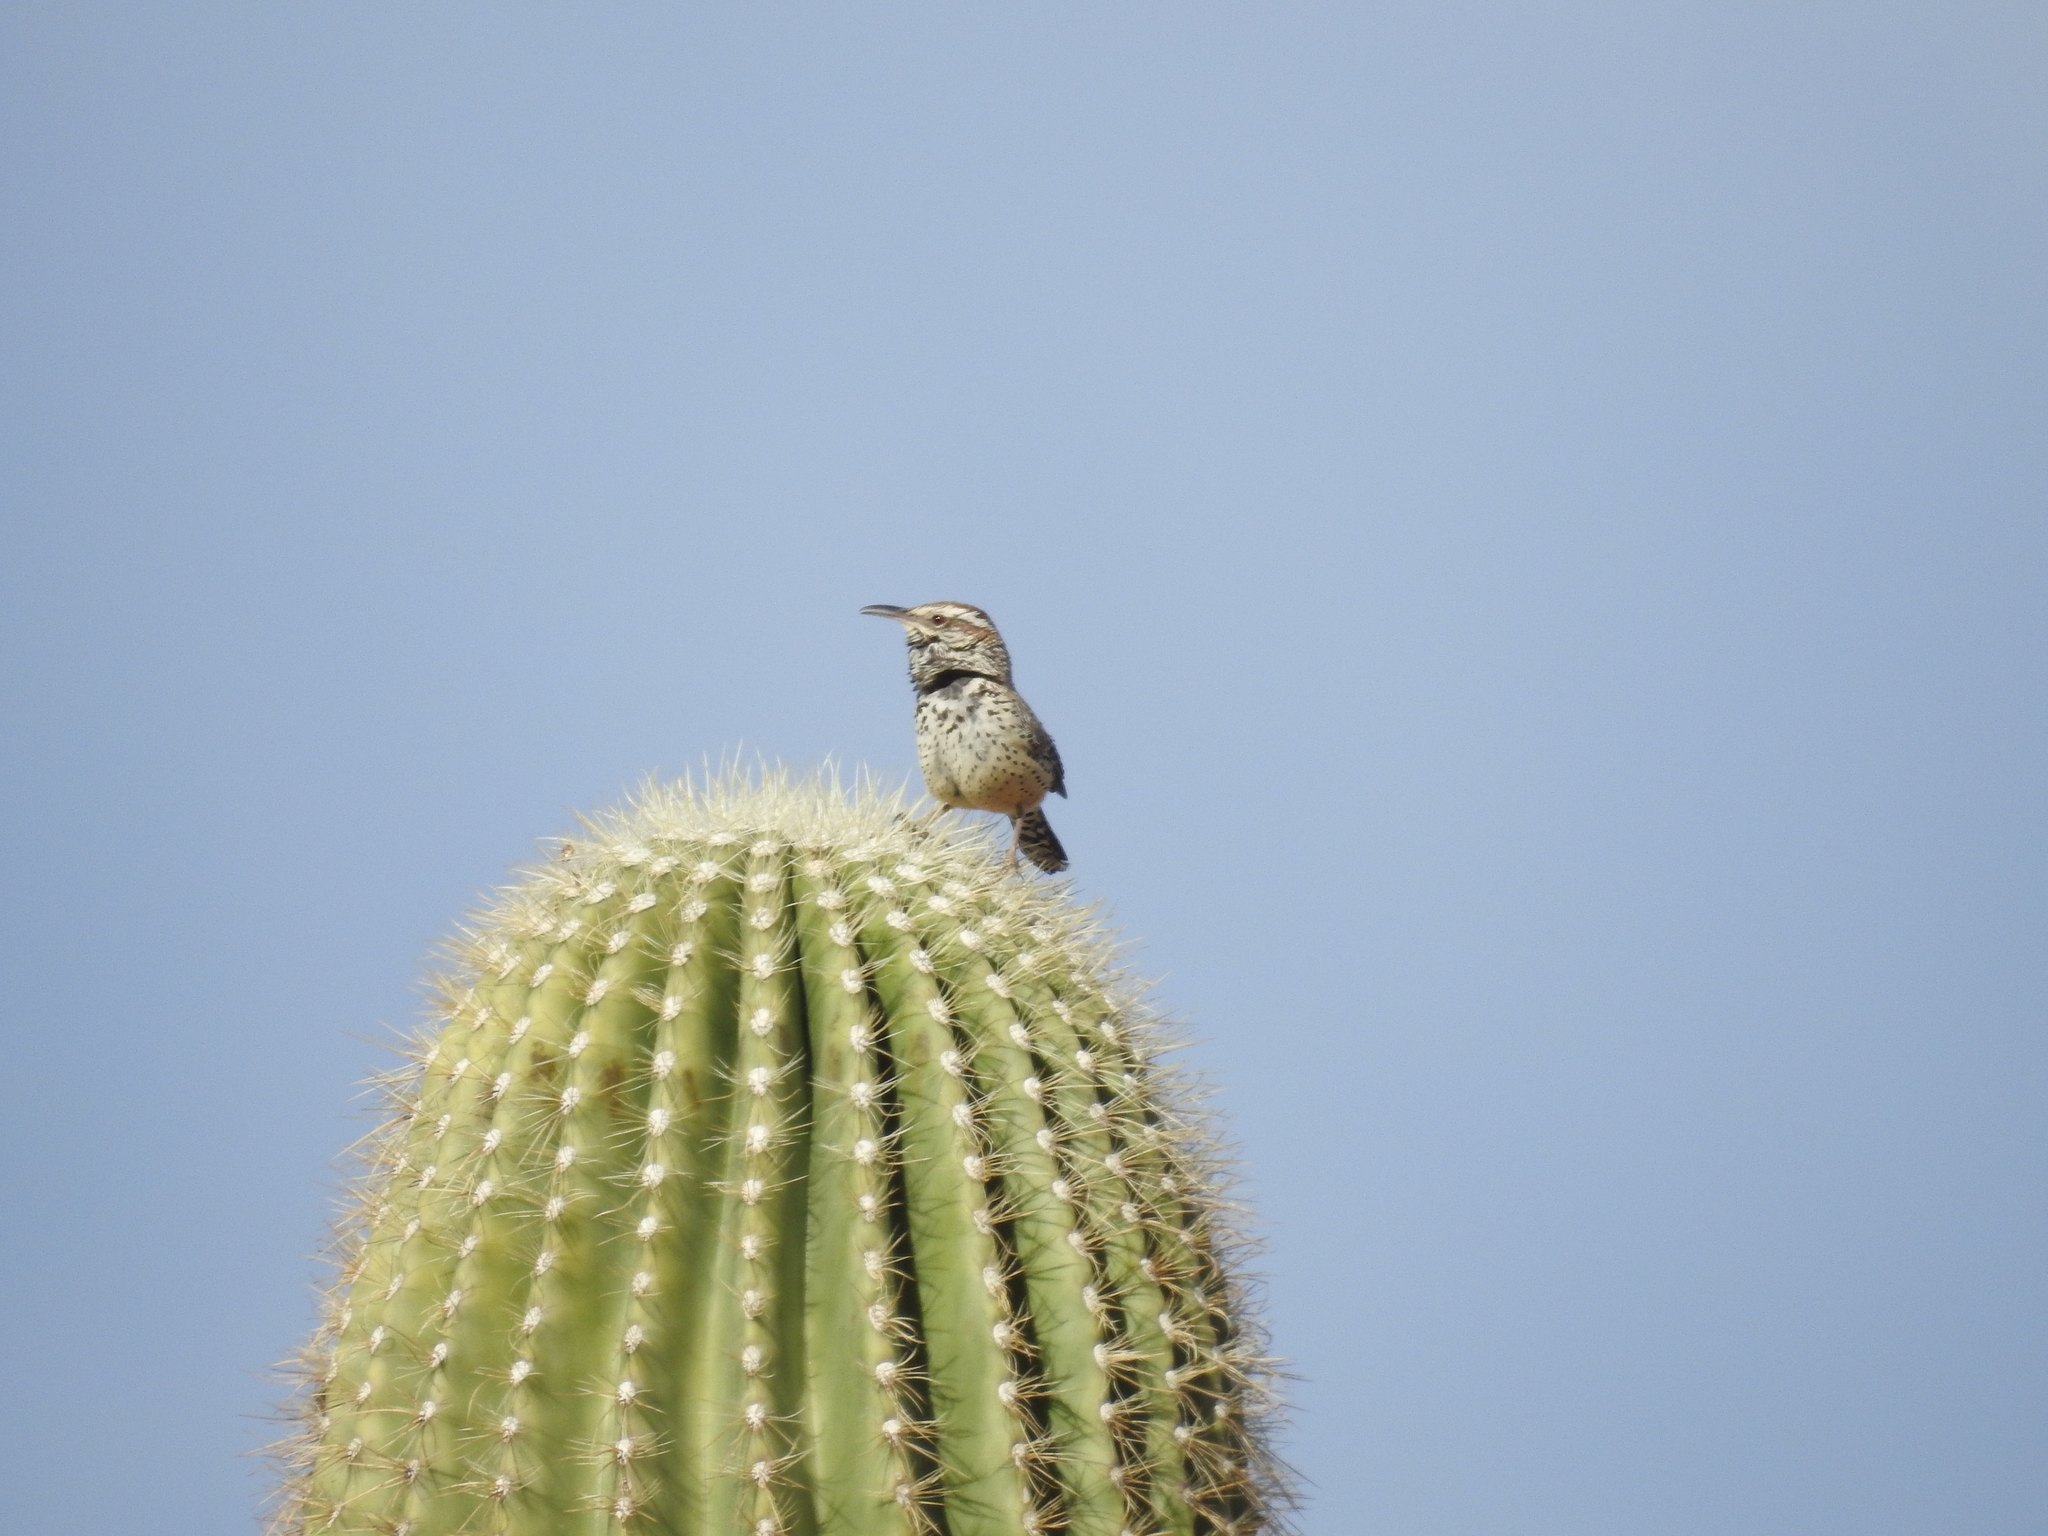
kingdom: Animalia
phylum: Chordata
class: Aves
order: Passeriformes
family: Troglodytidae
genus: Campylorhynchus
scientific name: Campylorhynchus brunneicapillus
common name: Cactus wren
